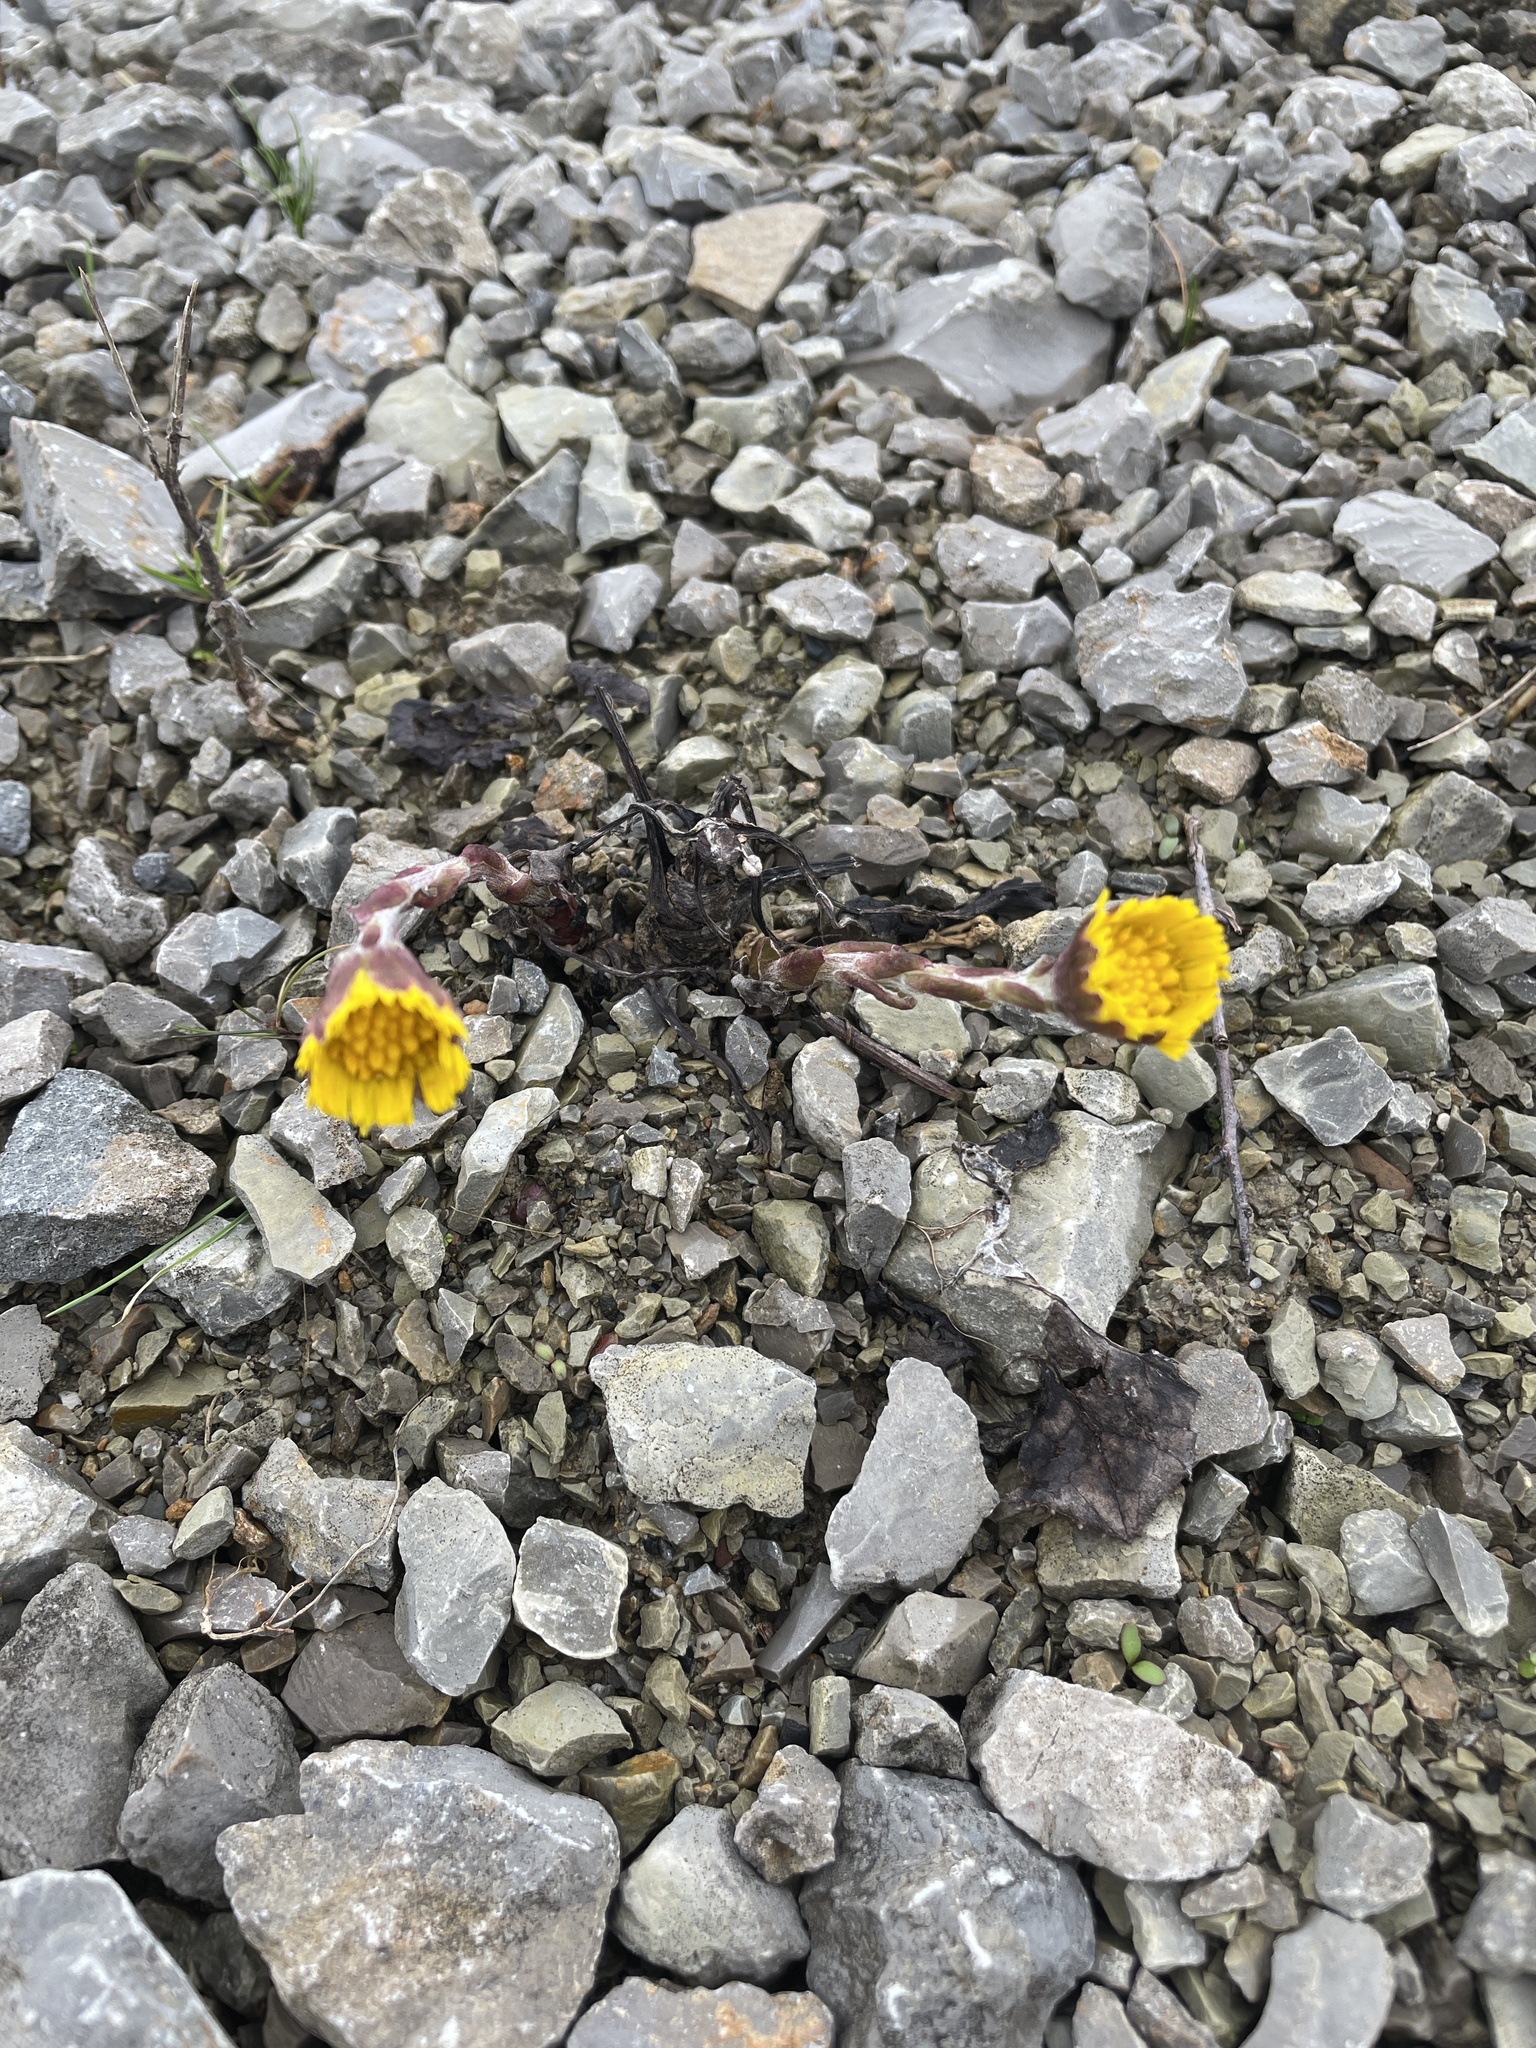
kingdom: Plantae
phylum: Tracheophyta
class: Magnoliopsida
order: Asterales
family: Asteraceae
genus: Tussilago
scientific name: Tussilago farfara
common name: Coltsfoot
